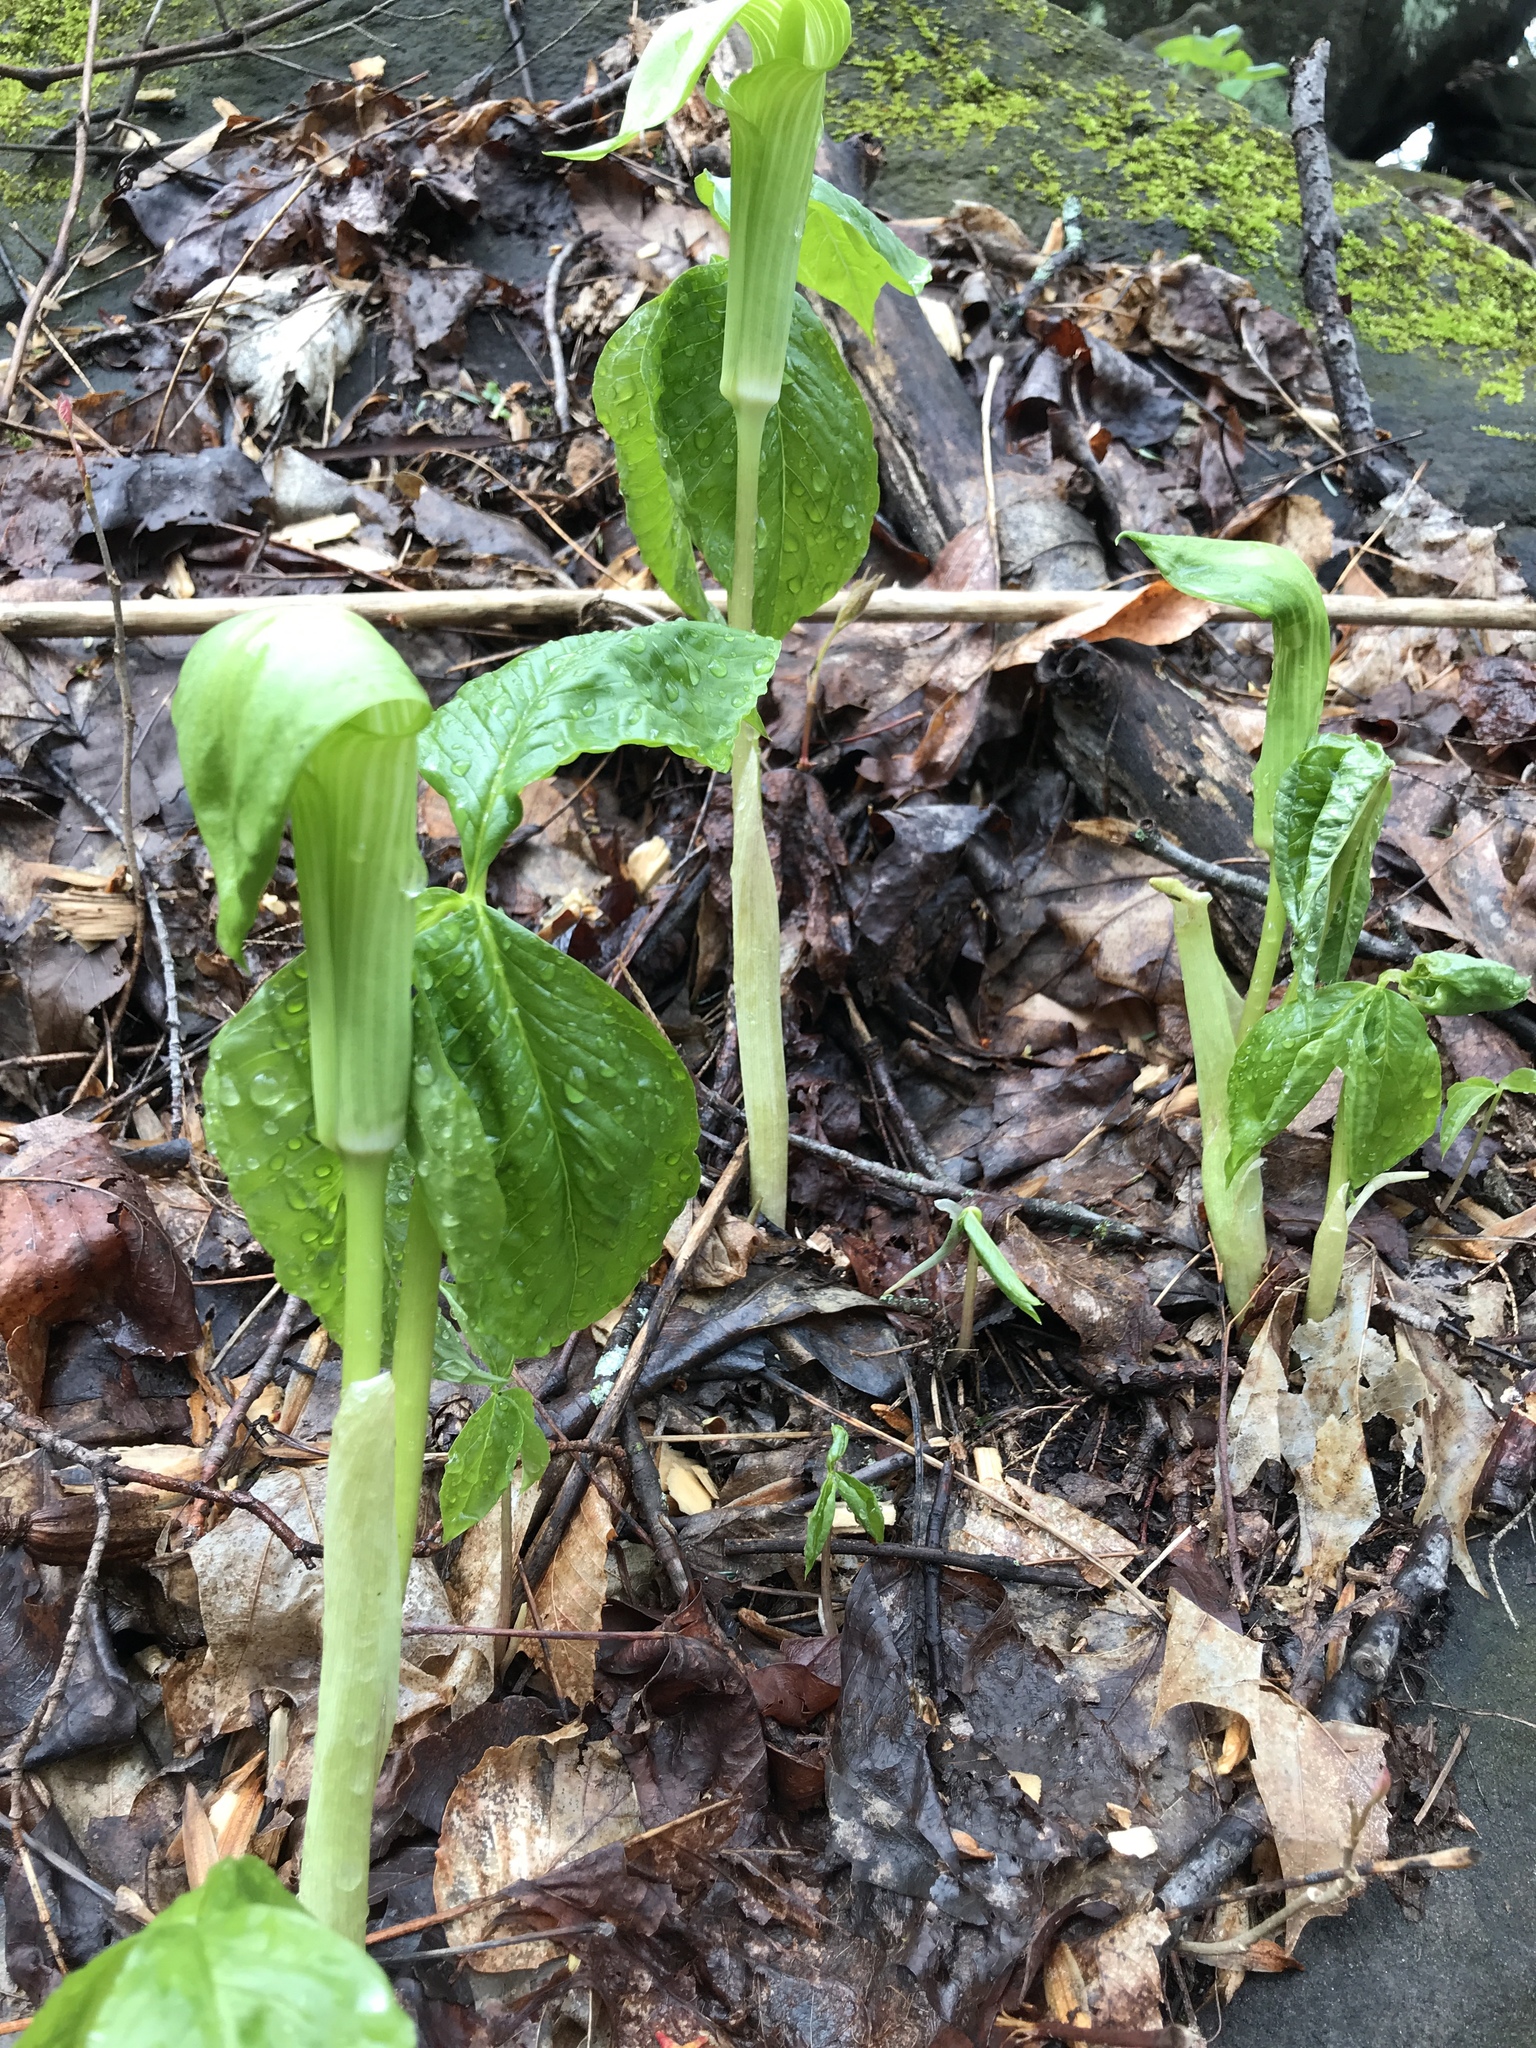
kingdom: Plantae
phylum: Tracheophyta
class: Liliopsida
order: Alismatales
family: Araceae
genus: Arisaema
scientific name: Arisaema triphyllum
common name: Jack-in-the-pulpit
